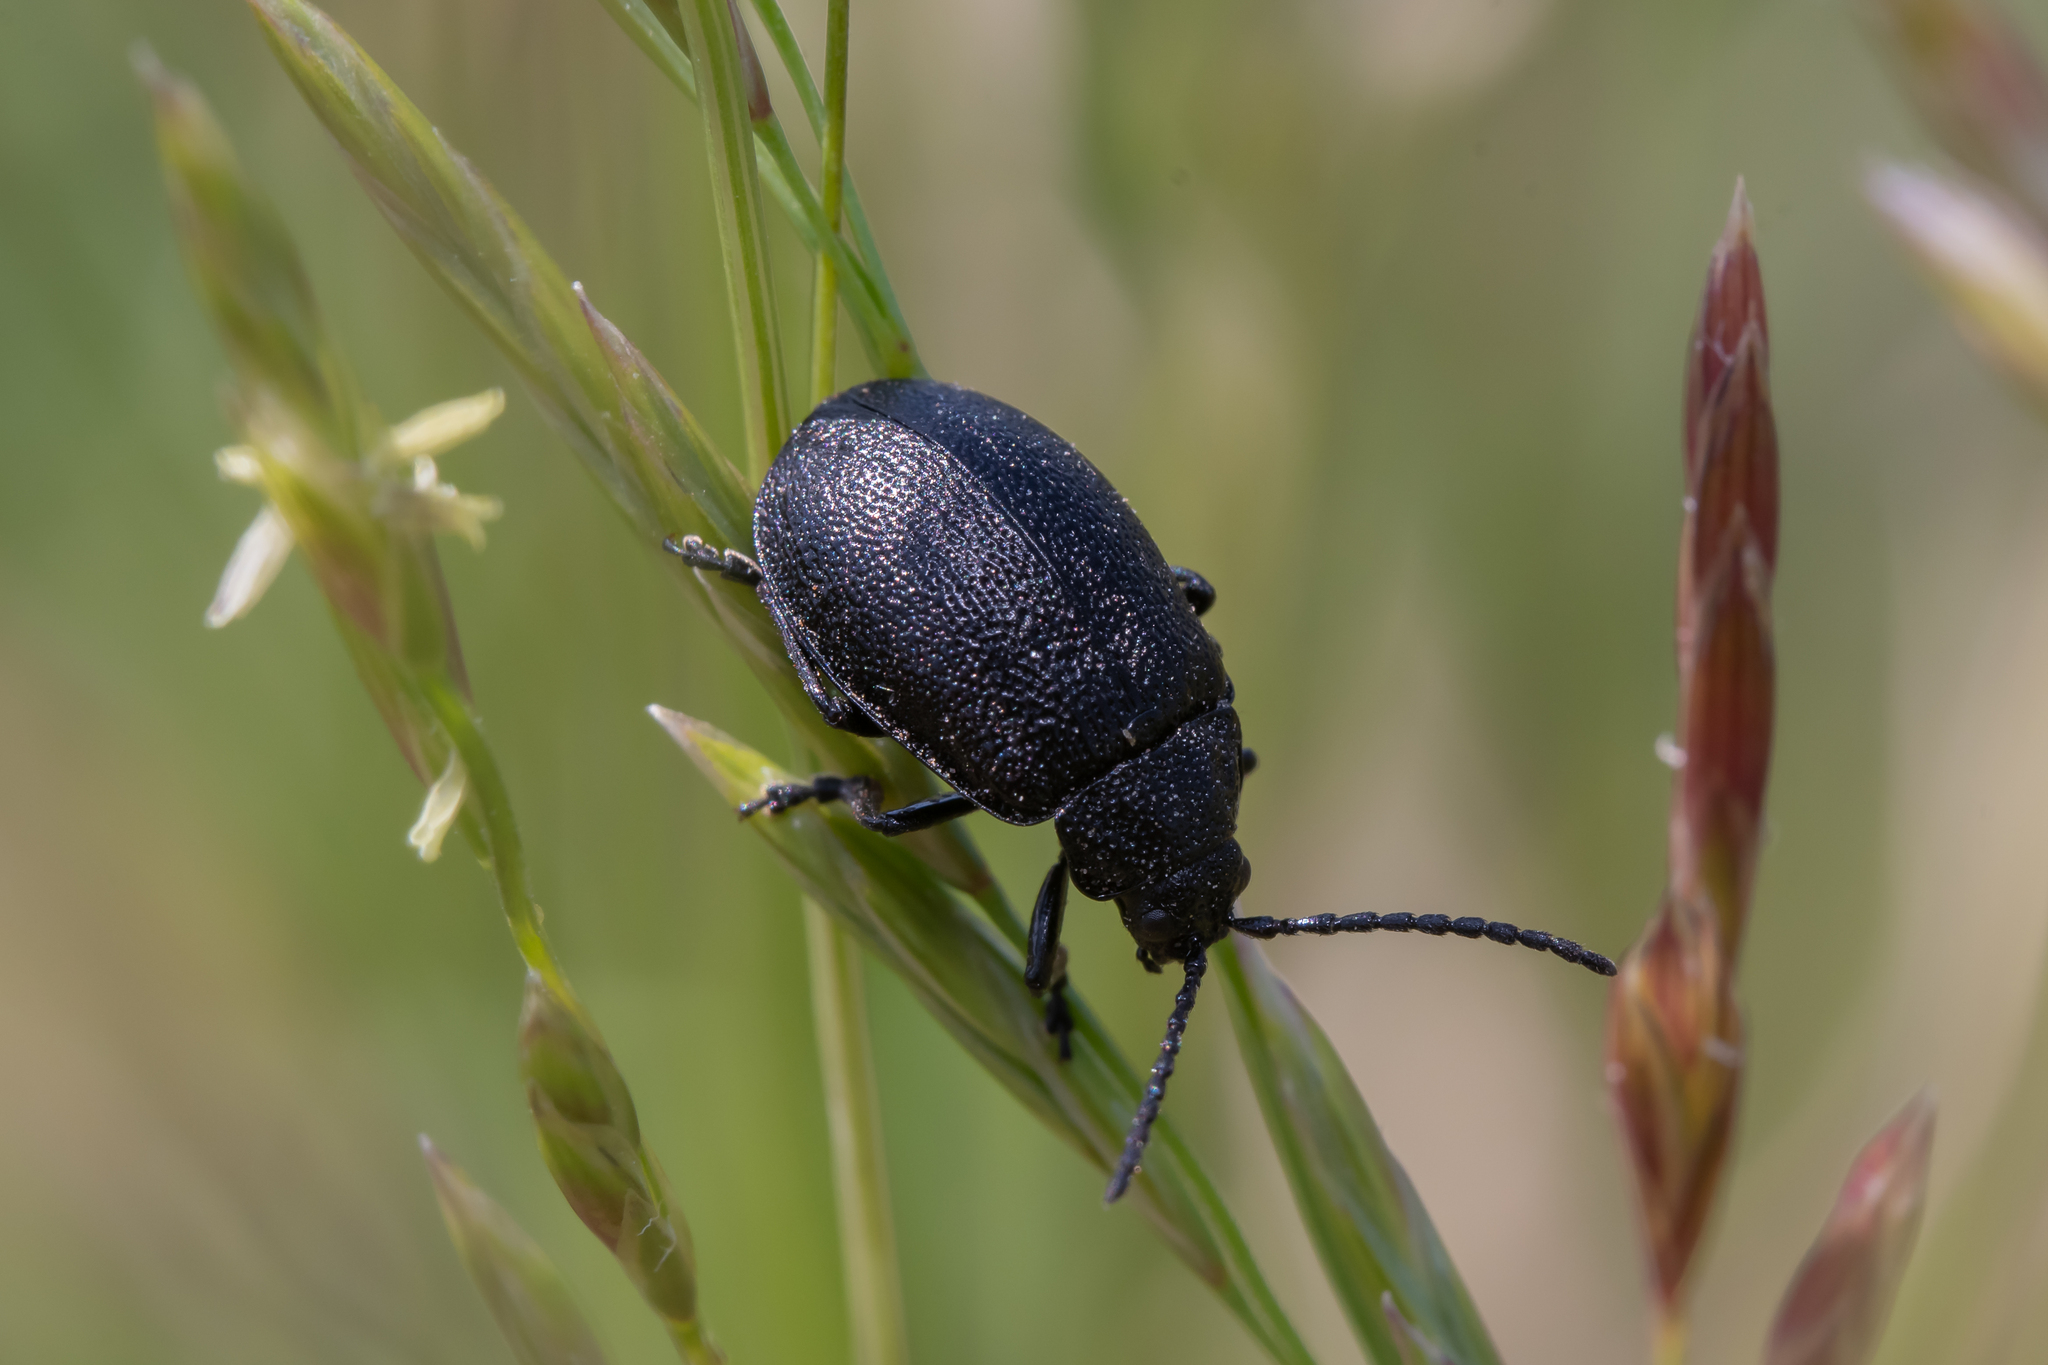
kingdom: Animalia
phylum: Arthropoda
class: Insecta
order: Coleoptera
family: Chrysomelidae
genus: Galeruca
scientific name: Galeruca tanaceti
